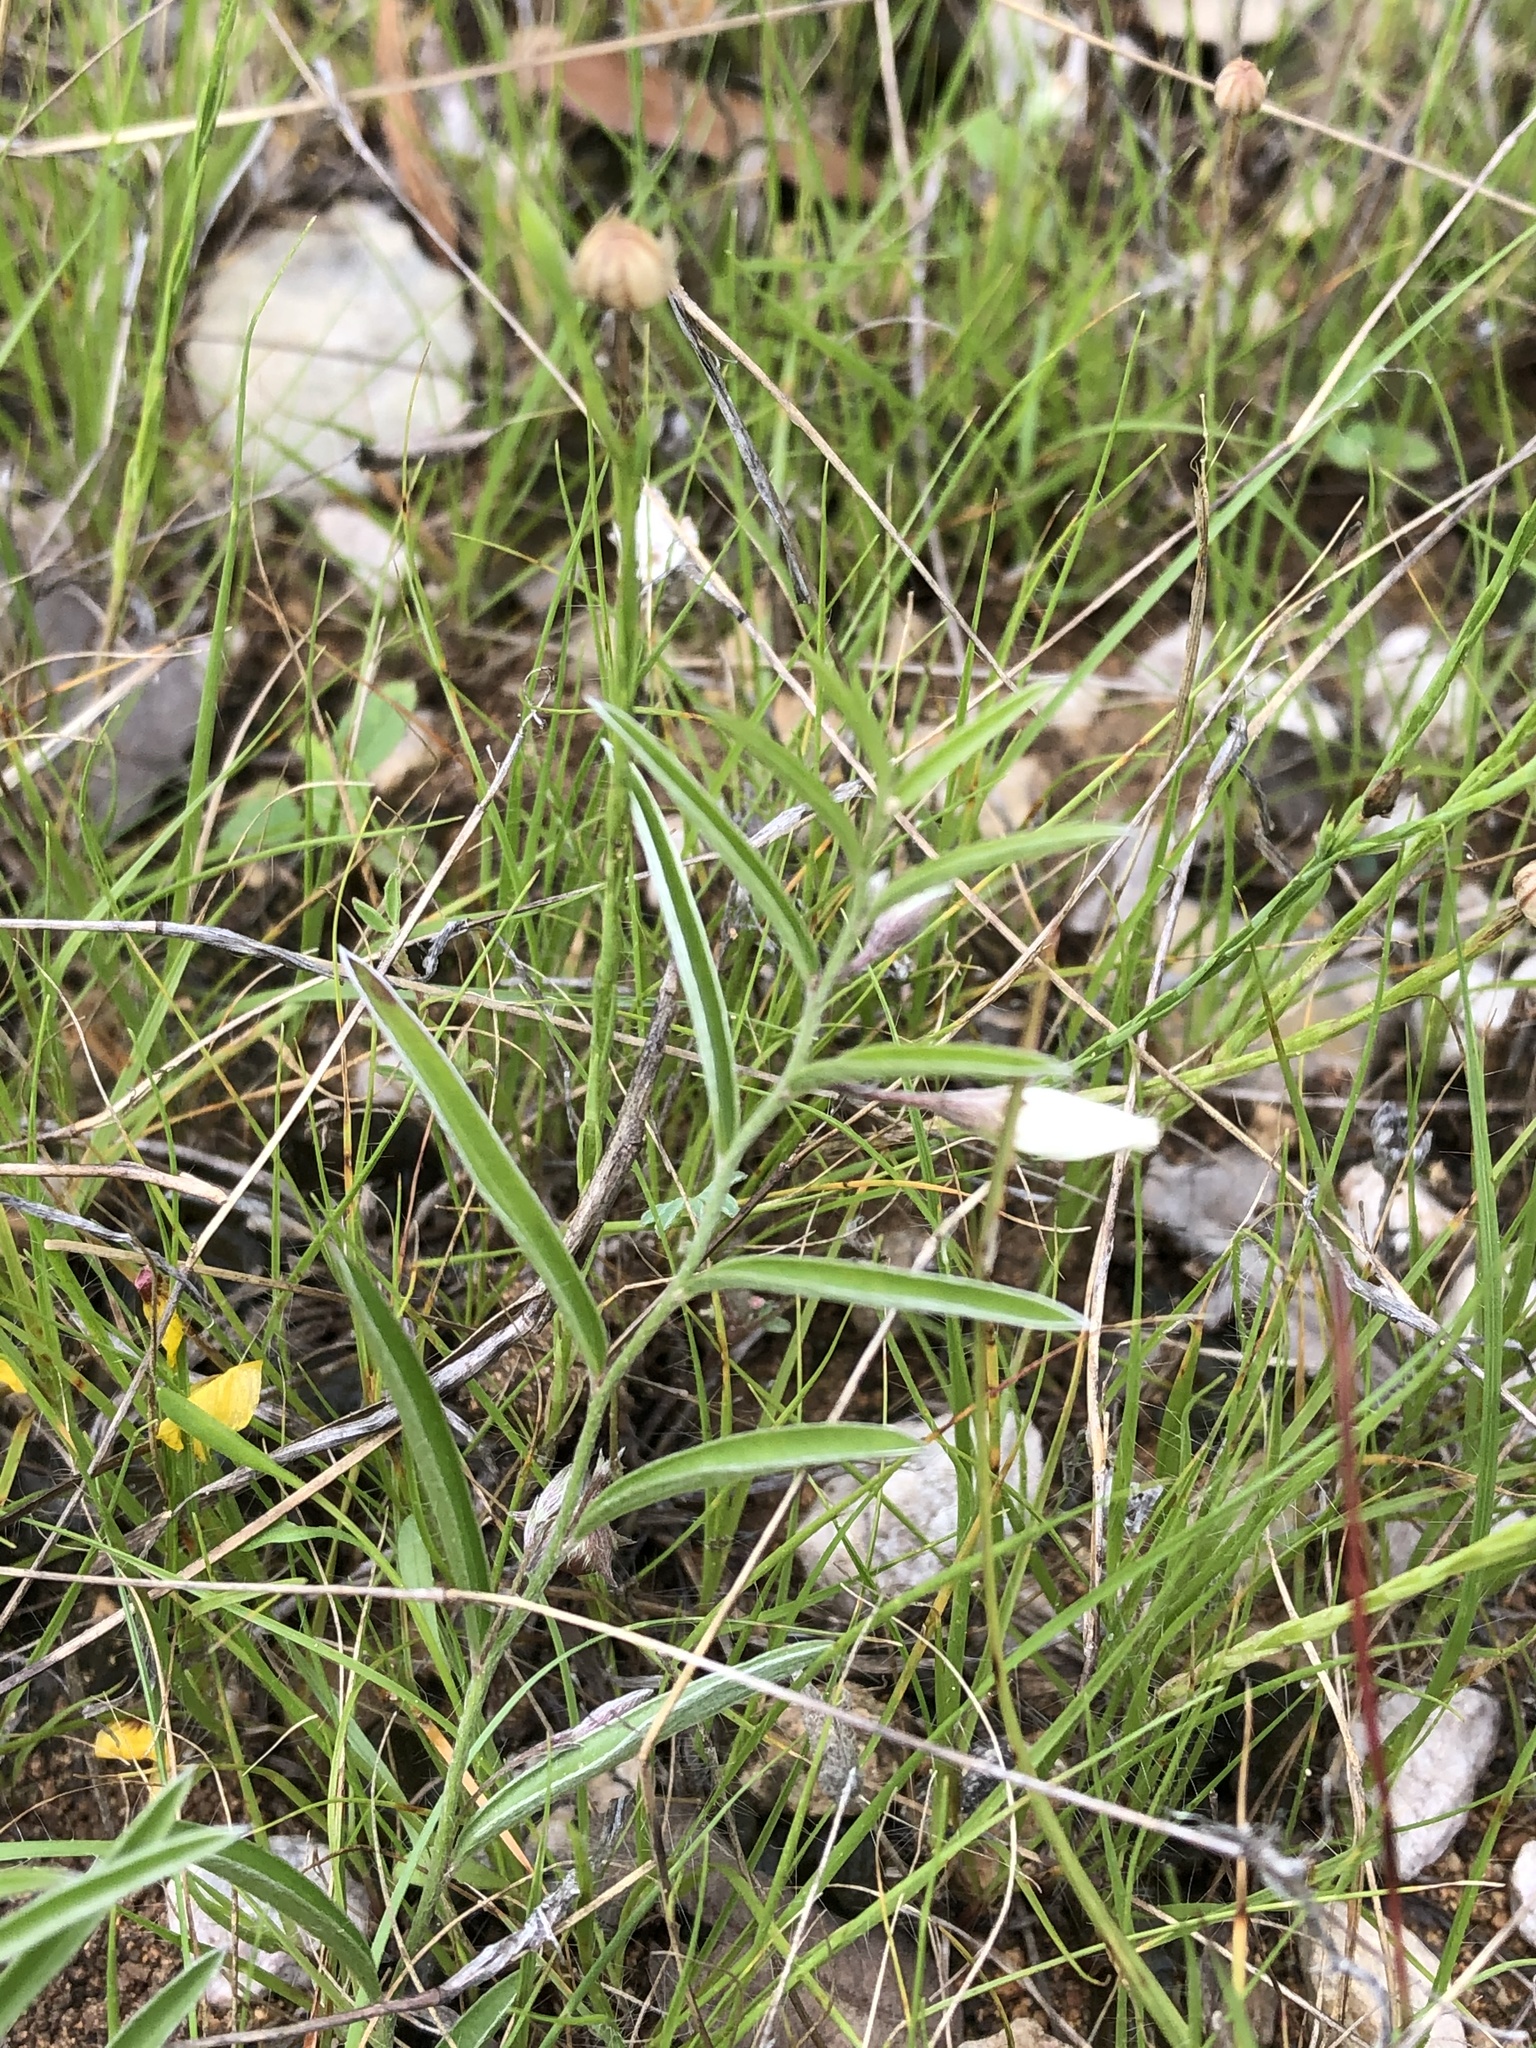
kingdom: Plantae
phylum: Tracheophyta
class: Magnoliopsida
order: Solanales
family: Convolvulaceae
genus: Evolvulus
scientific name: Evolvulus sericeus
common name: Blue dots
